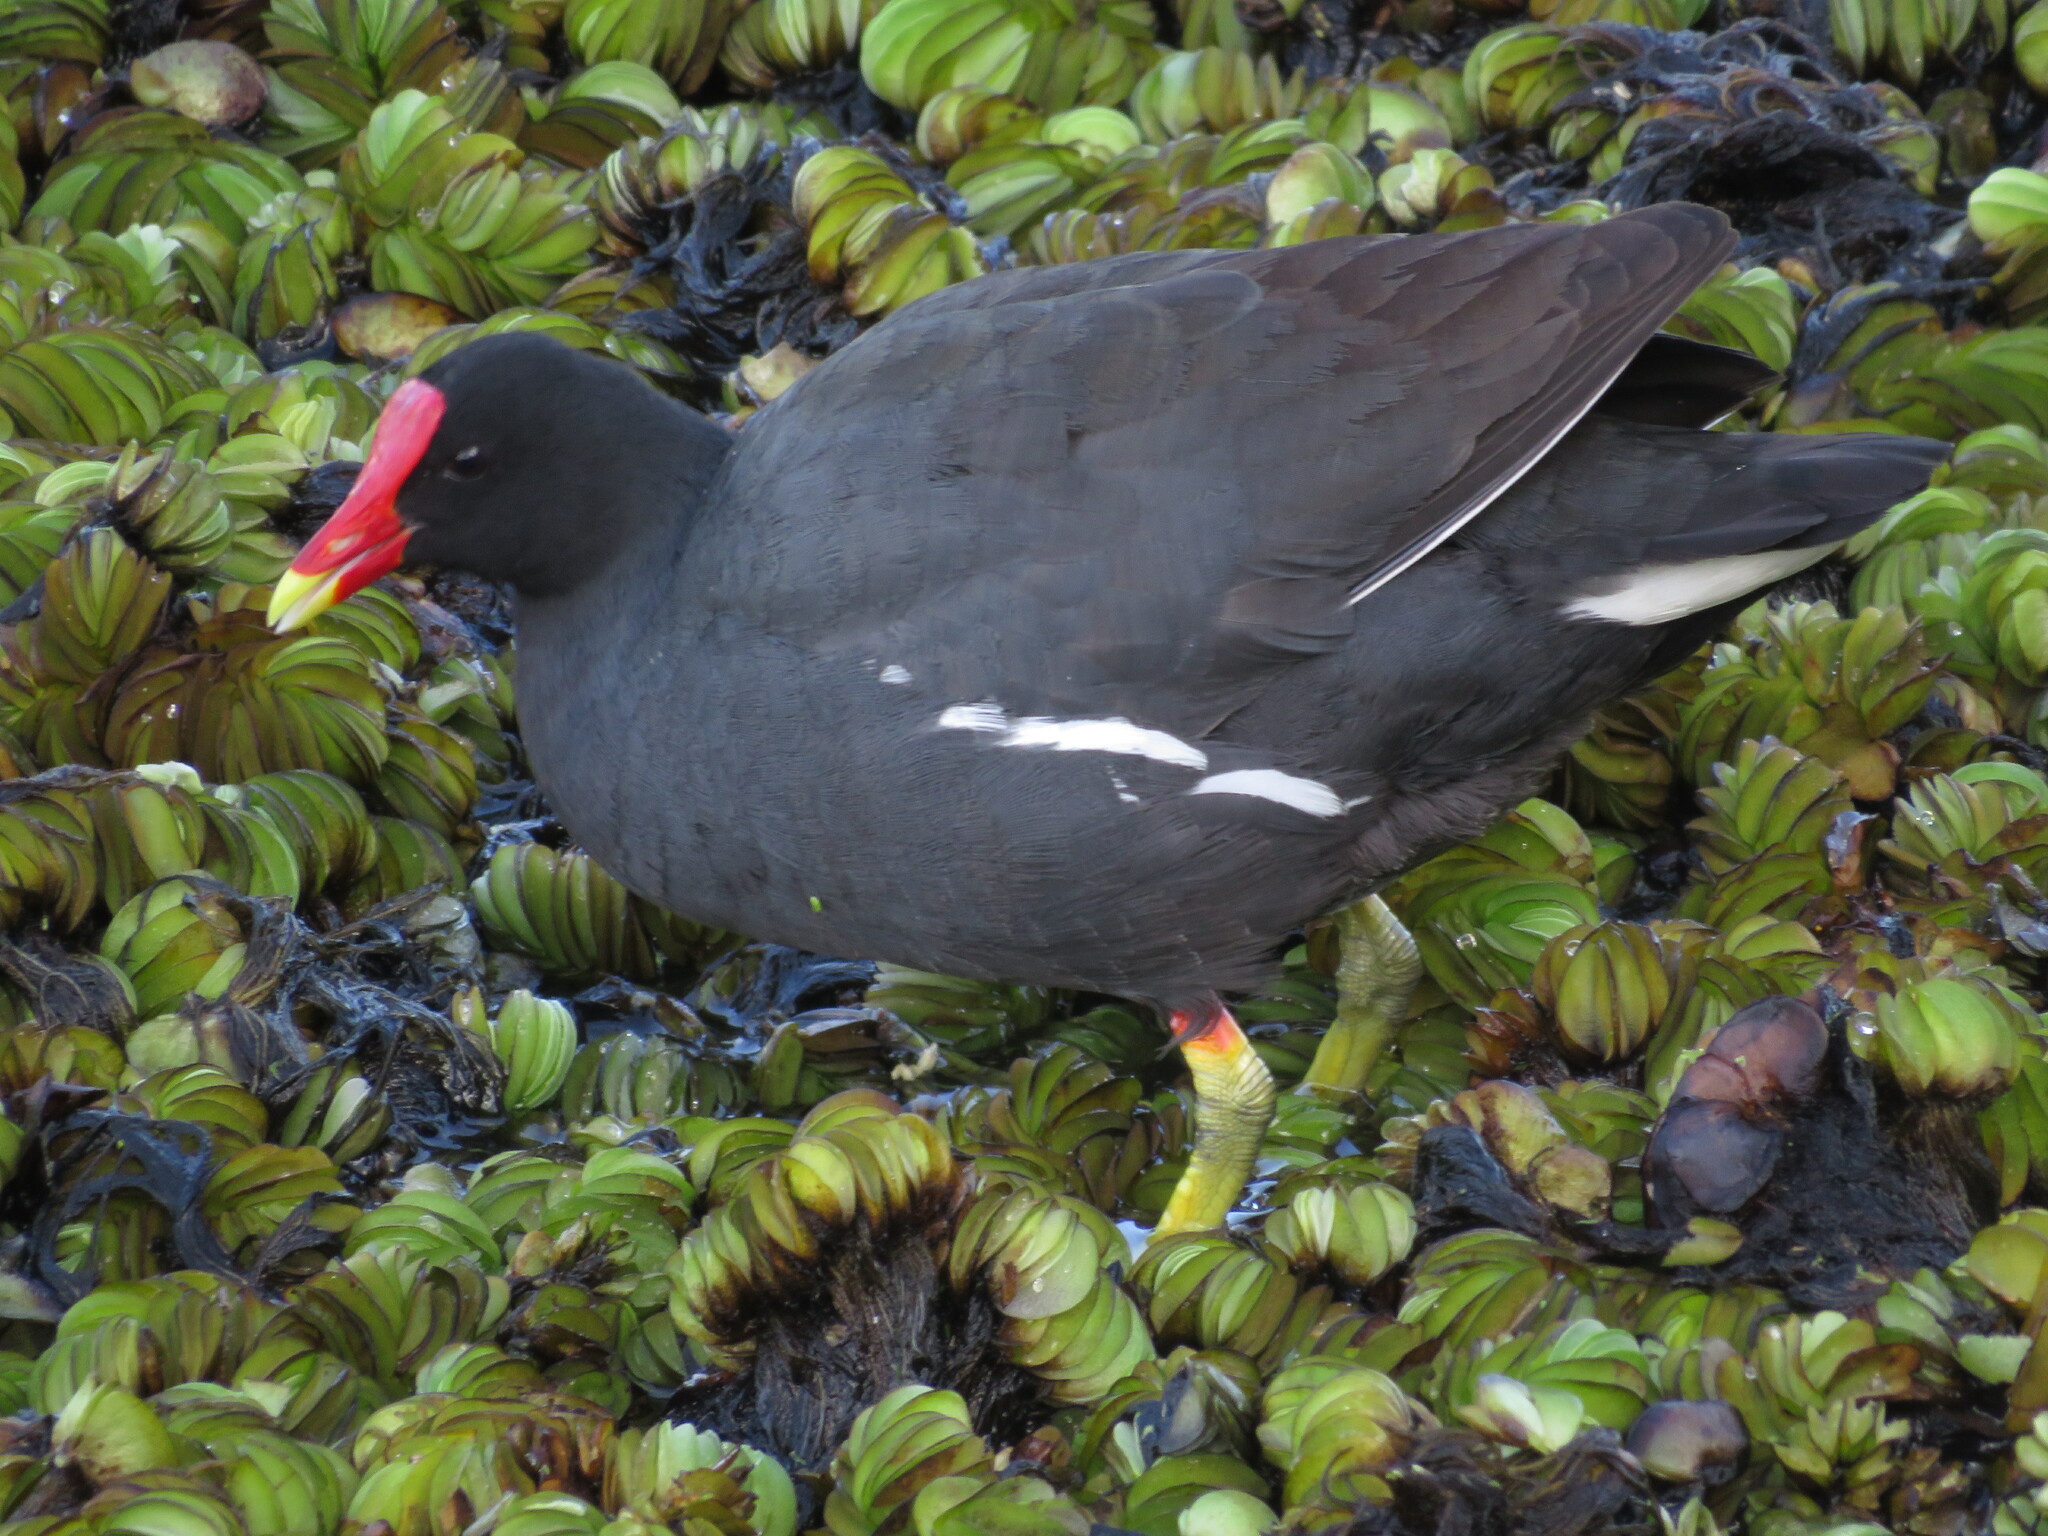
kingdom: Animalia
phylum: Chordata
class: Aves
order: Gruiformes
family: Rallidae
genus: Gallinula
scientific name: Gallinula chloropus
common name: Common moorhen
